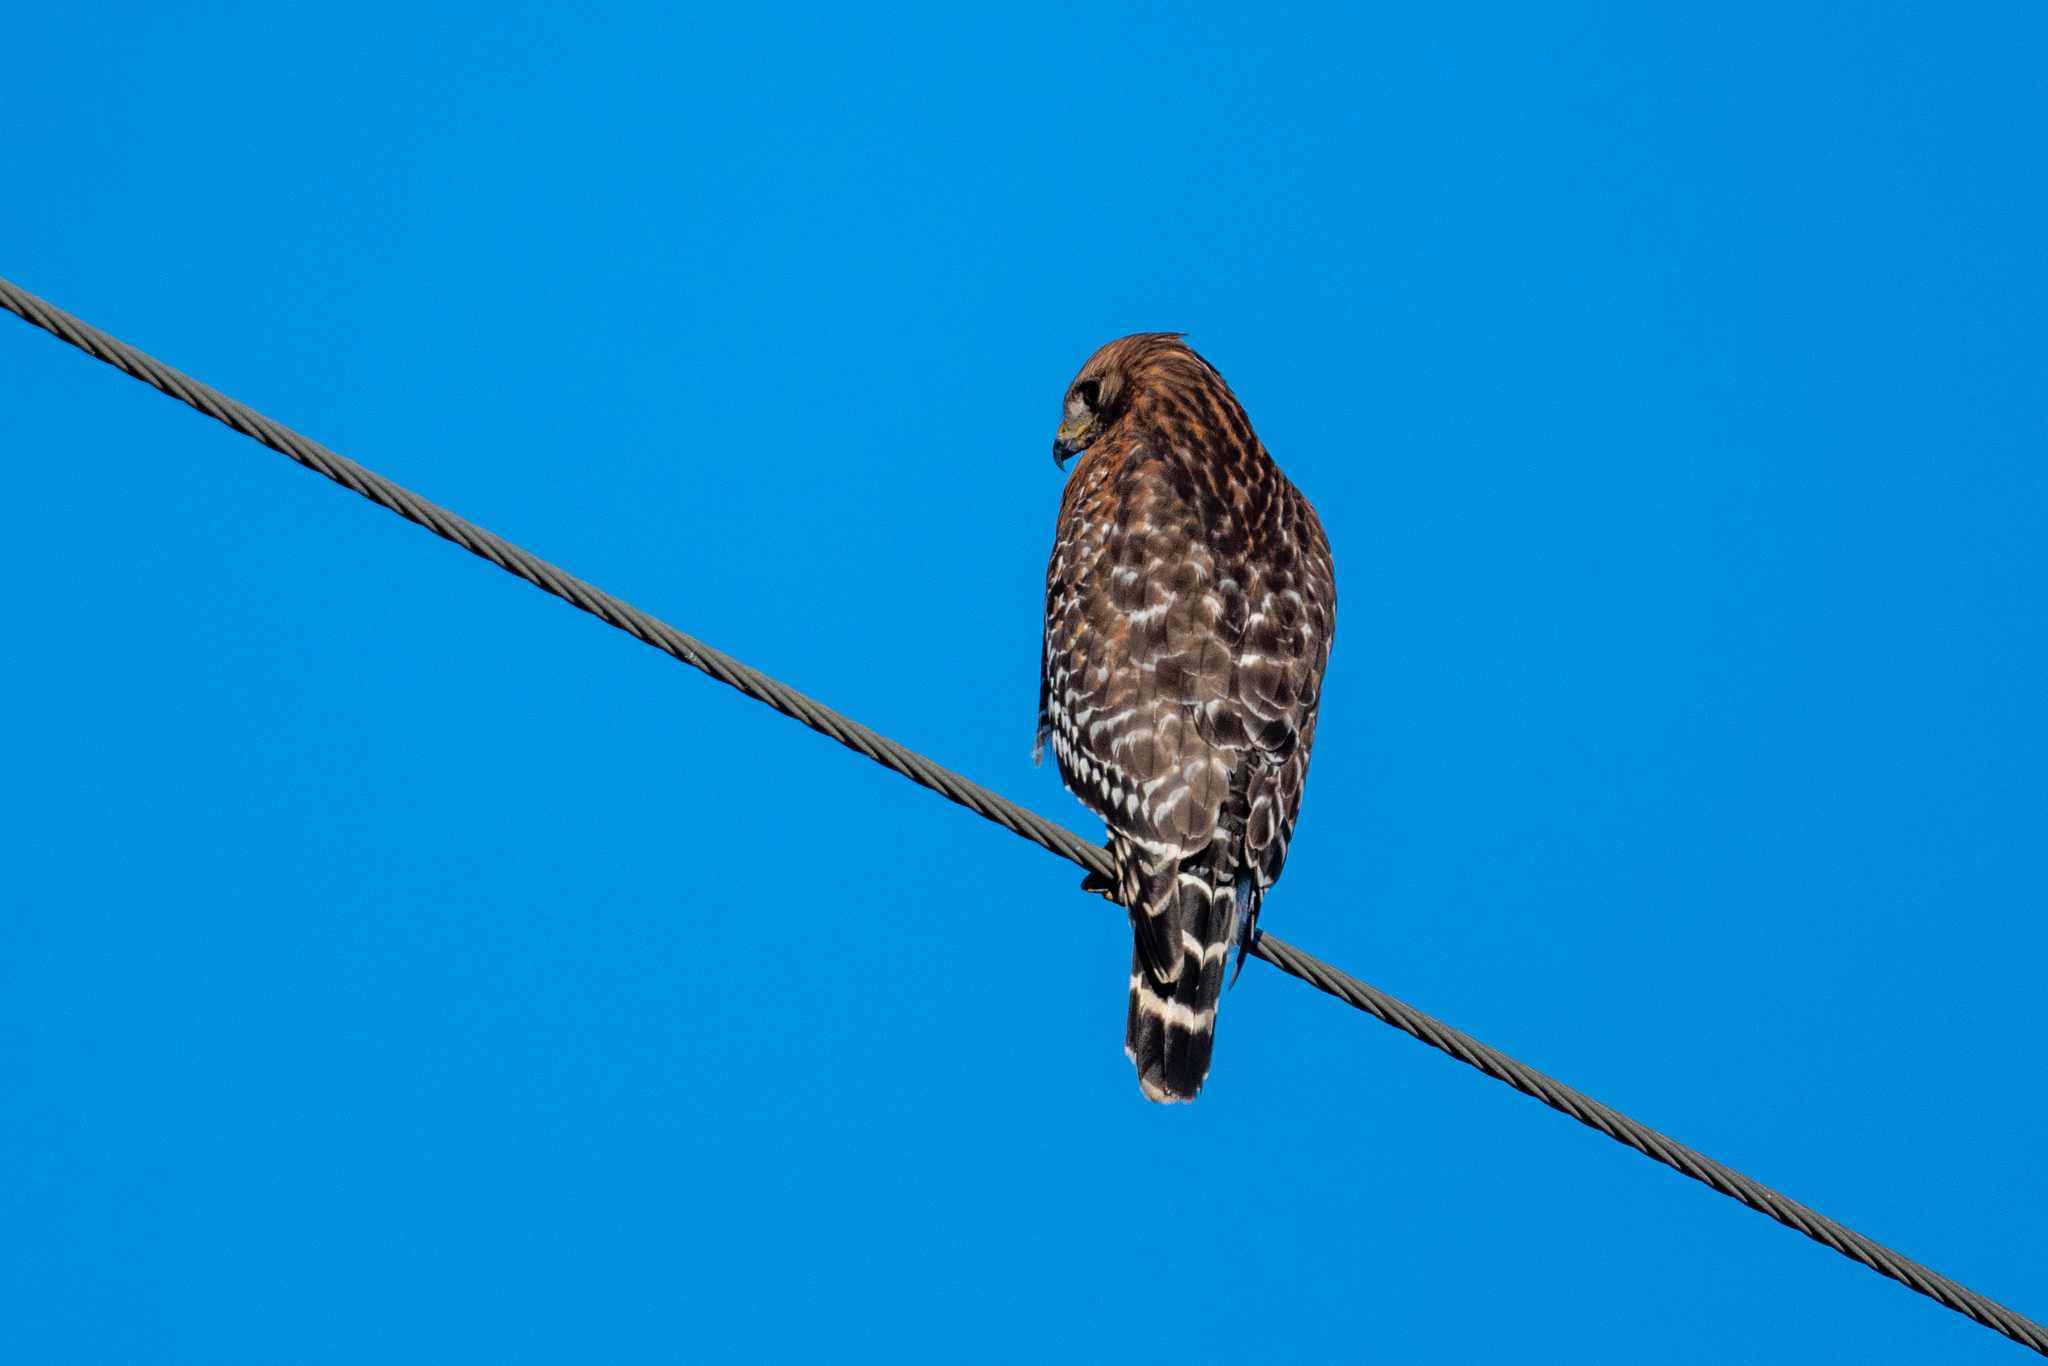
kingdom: Animalia
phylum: Chordata
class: Aves
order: Accipitriformes
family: Accipitridae
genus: Buteo
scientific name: Buteo lineatus
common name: Red-shouldered hawk
